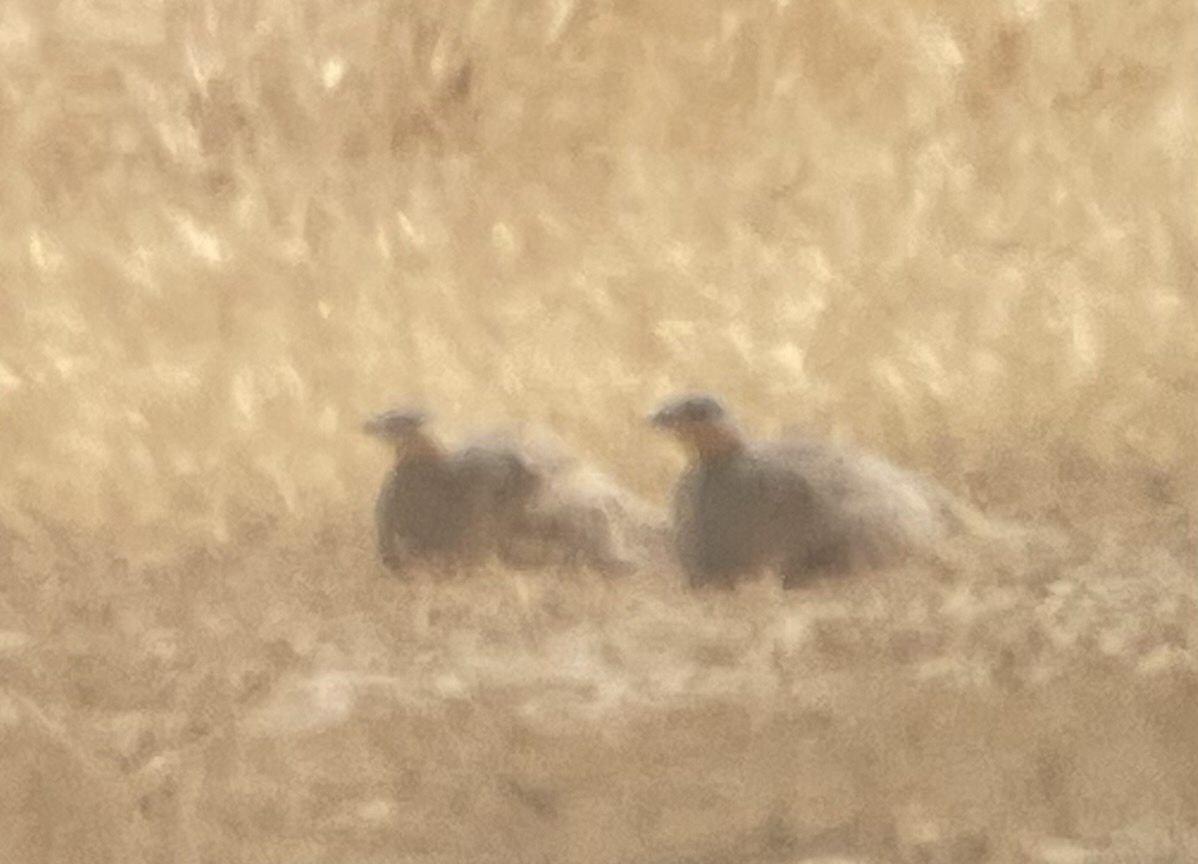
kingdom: Animalia
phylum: Chordata
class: Aves
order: Pteroclidiformes
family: Pteroclididae
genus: Pterocles
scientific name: Pterocles senegallus
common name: Spotted sandgrouse
